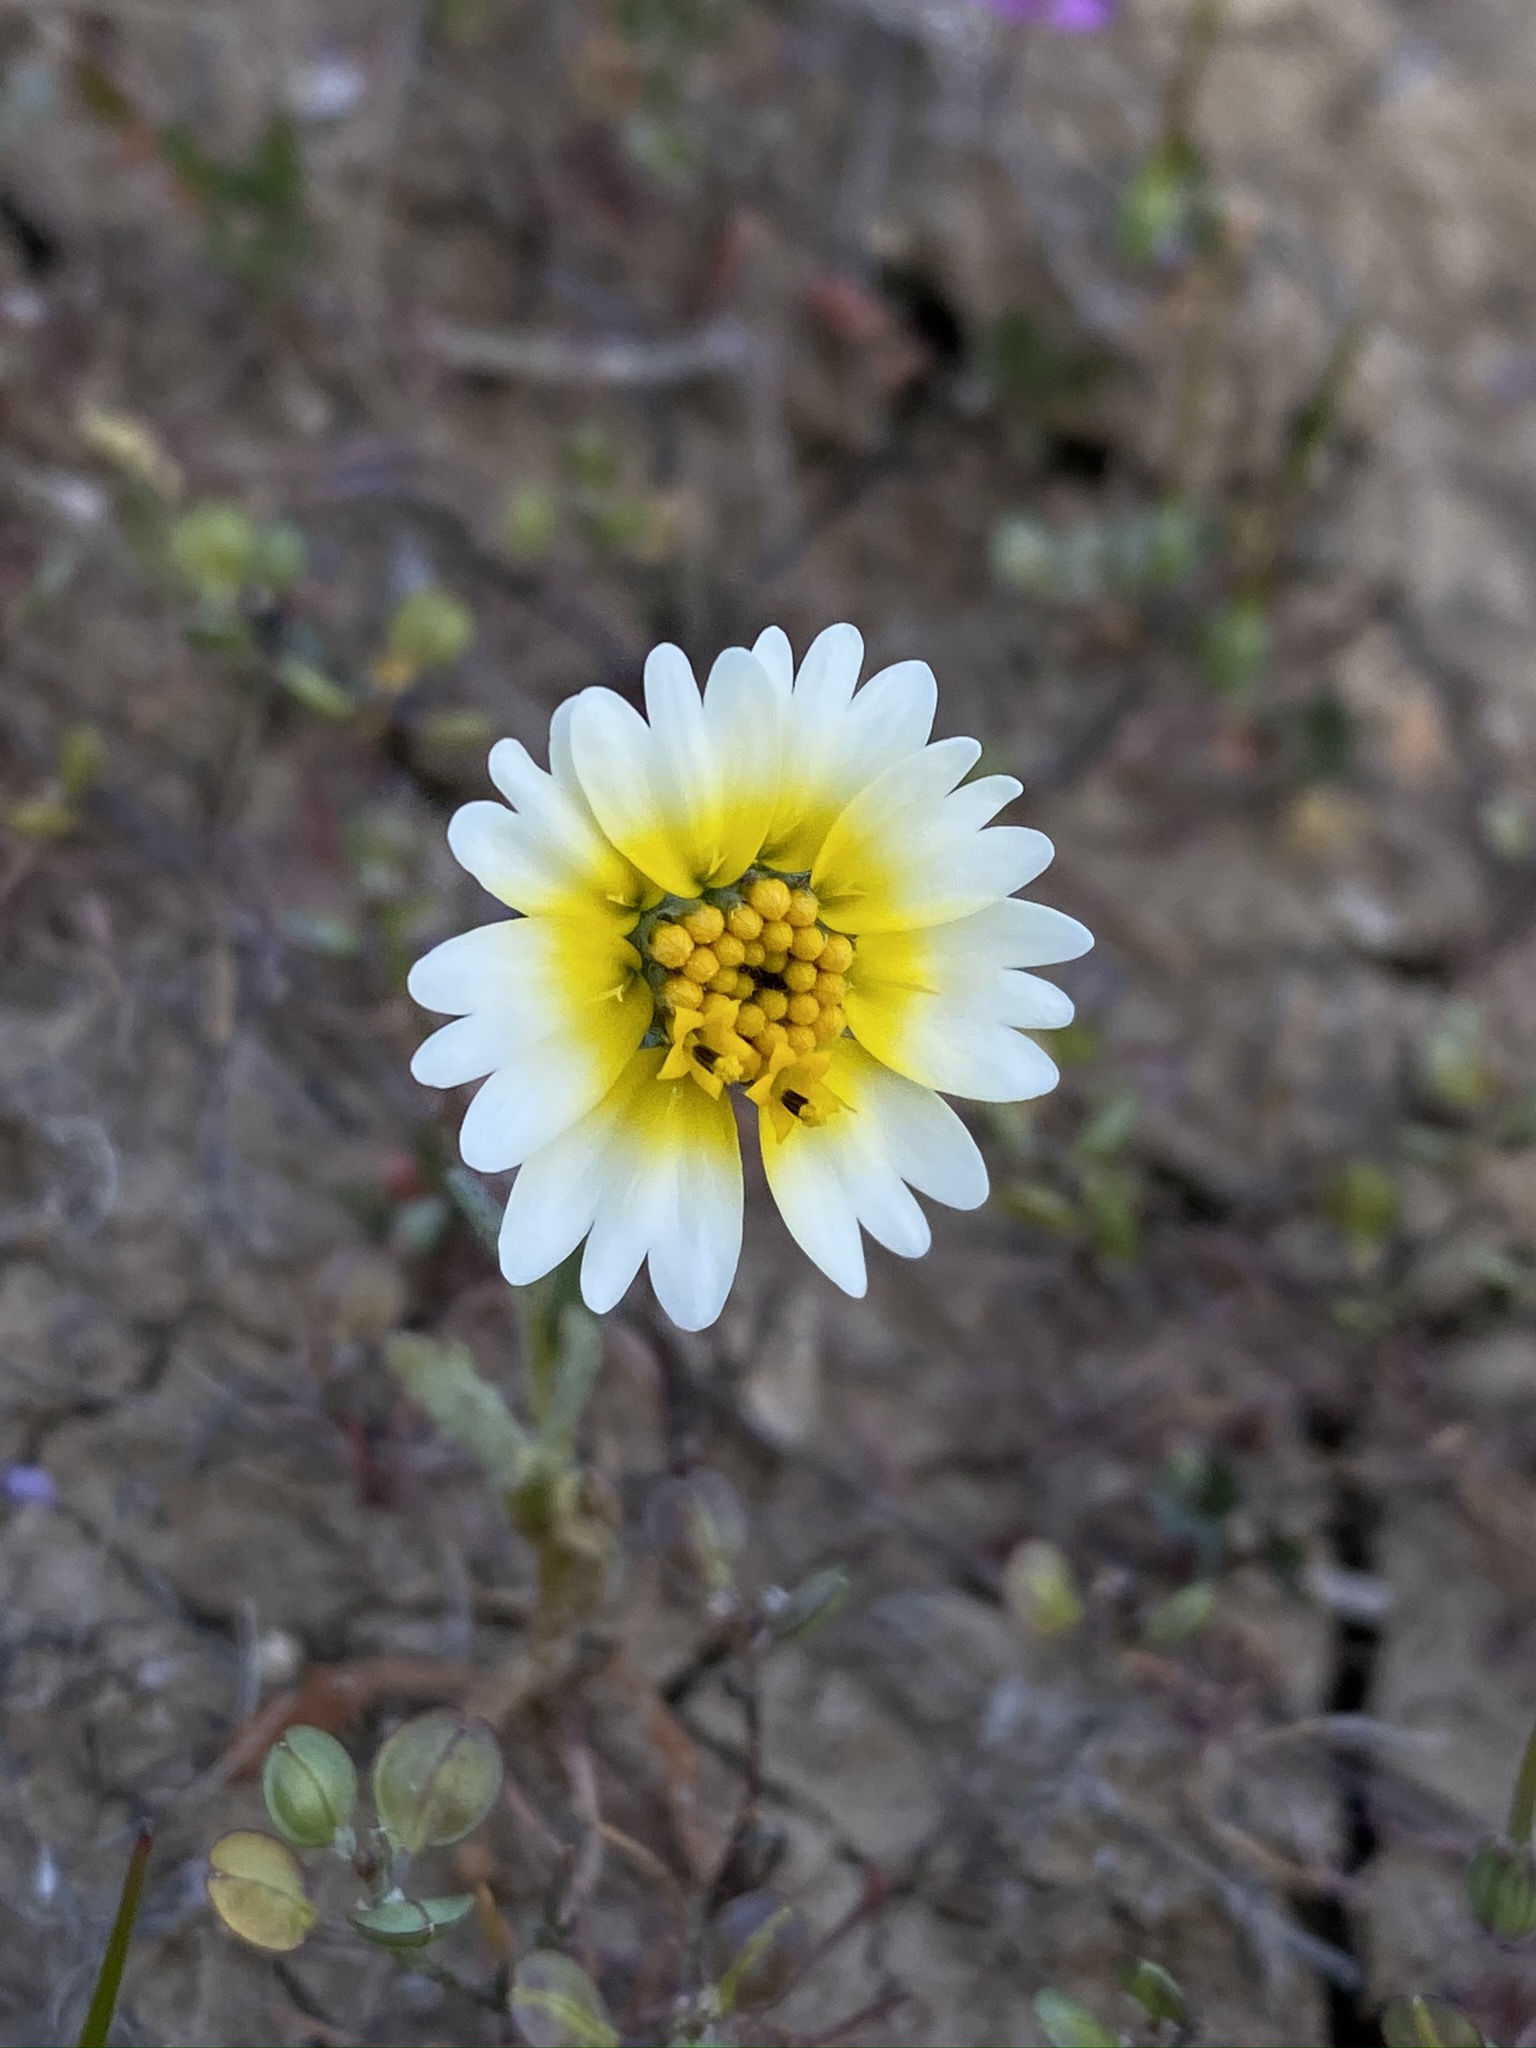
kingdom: Plantae
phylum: Tracheophyta
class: Magnoliopsida
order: Asterales
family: Asteraceae
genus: Layia
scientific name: Layia platyglossa
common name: Tidy-tips
